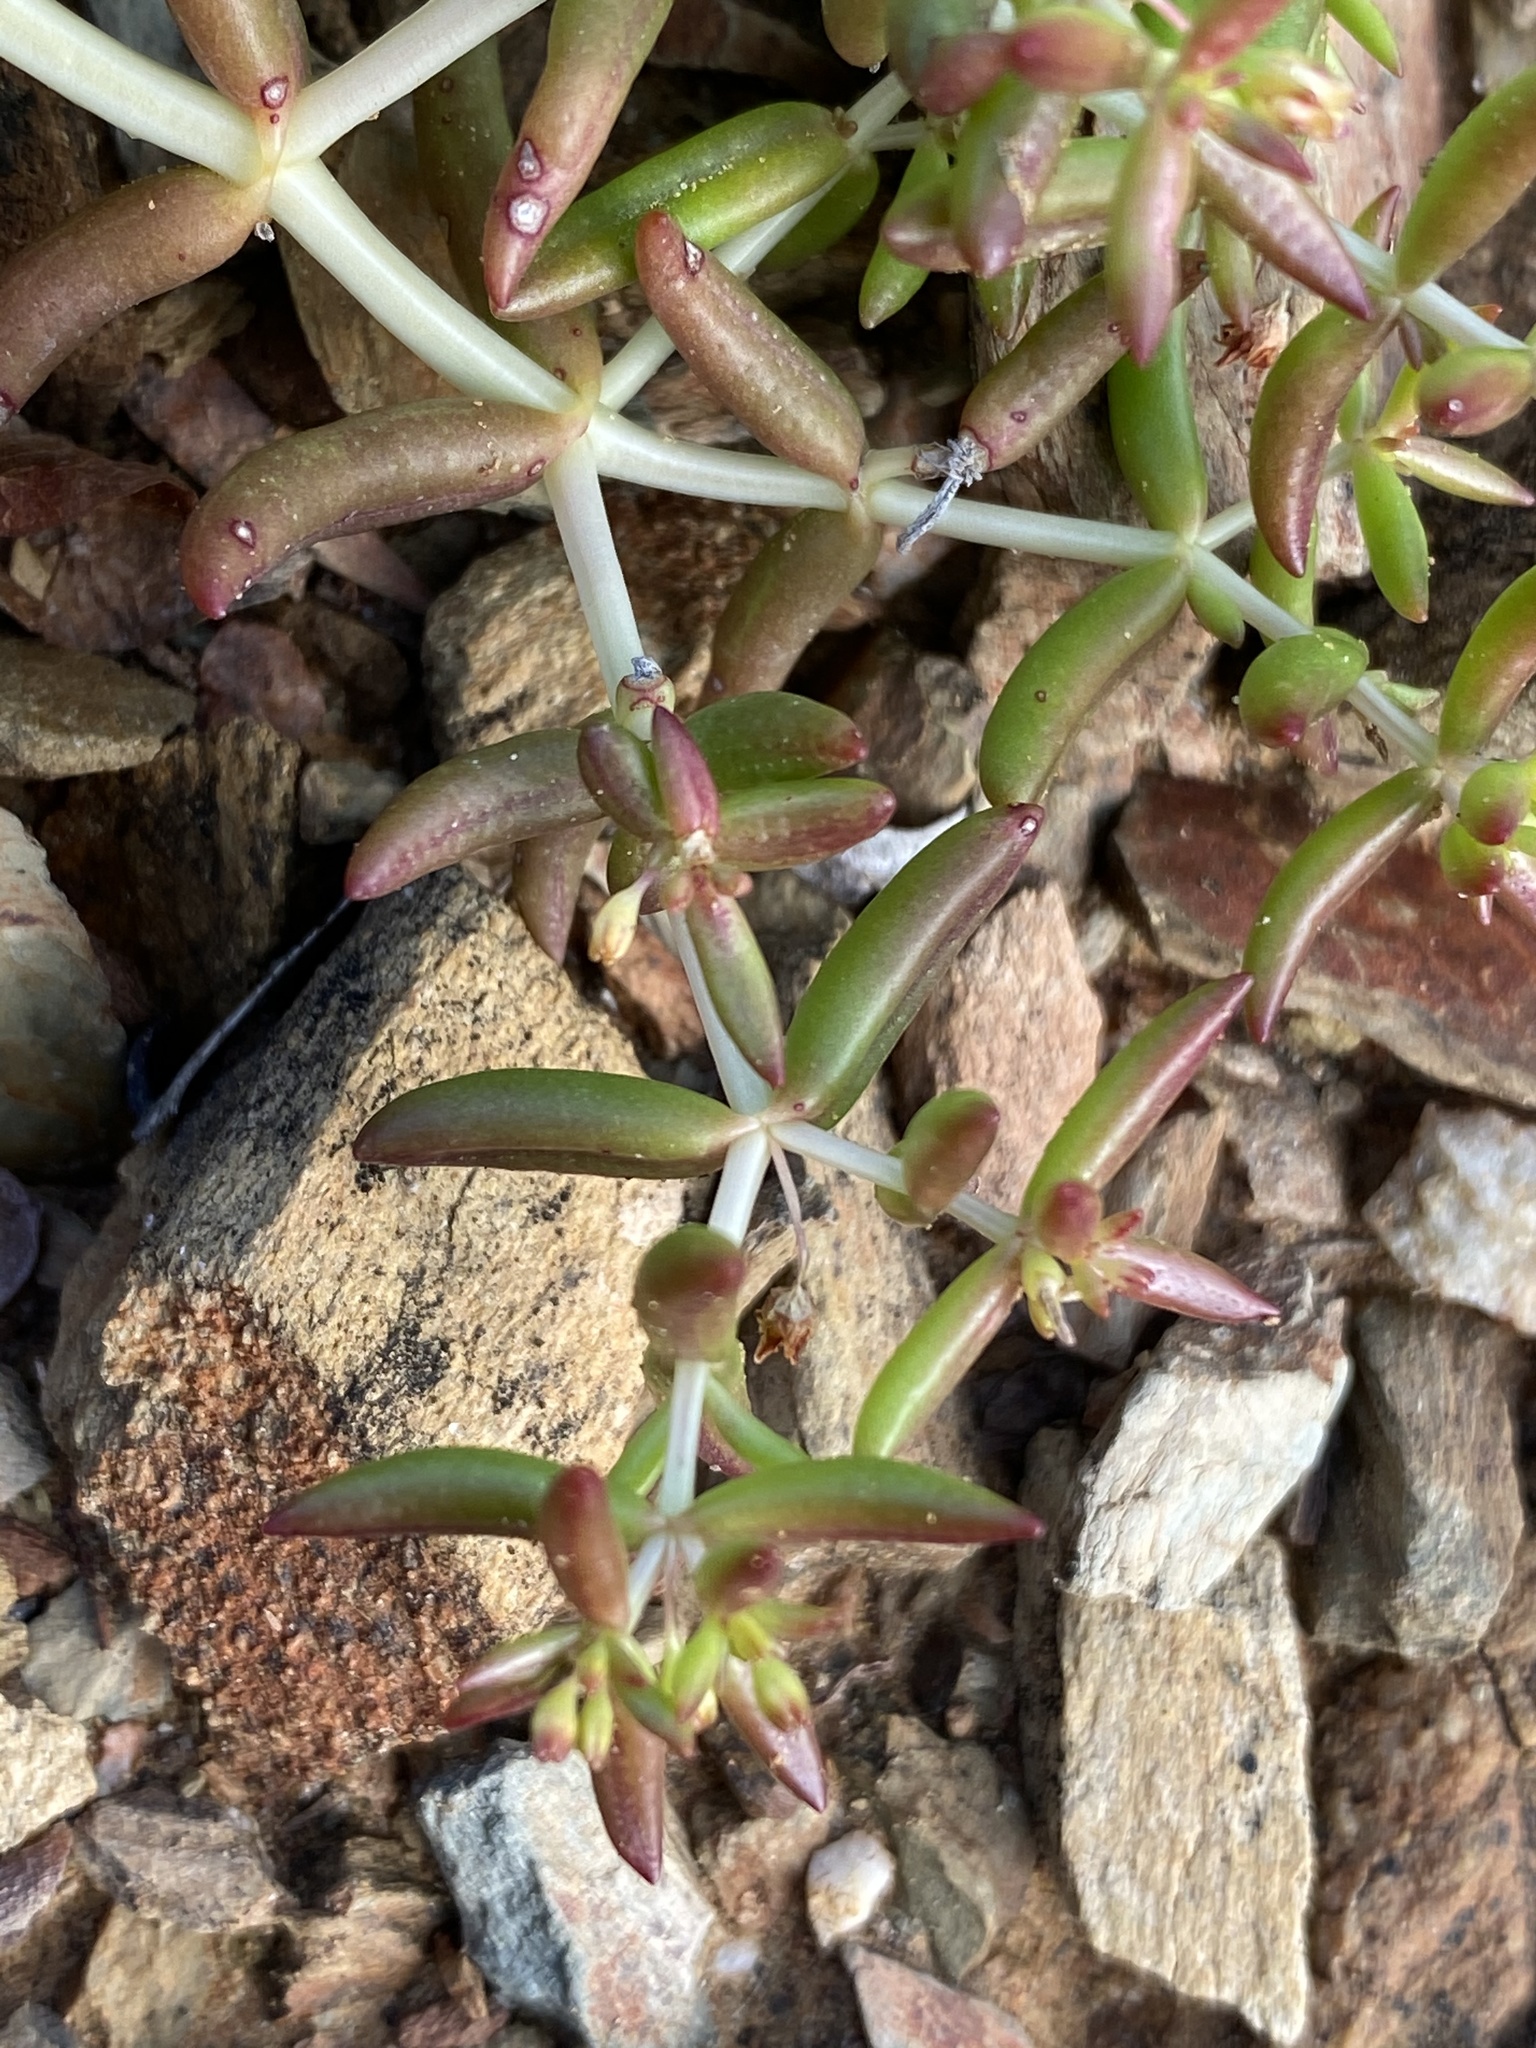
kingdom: Plantae
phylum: Tracheophyta
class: Magnoliopsida
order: Saxifragales
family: Crassulaceae
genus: Crassula
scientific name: Crassula expansa
